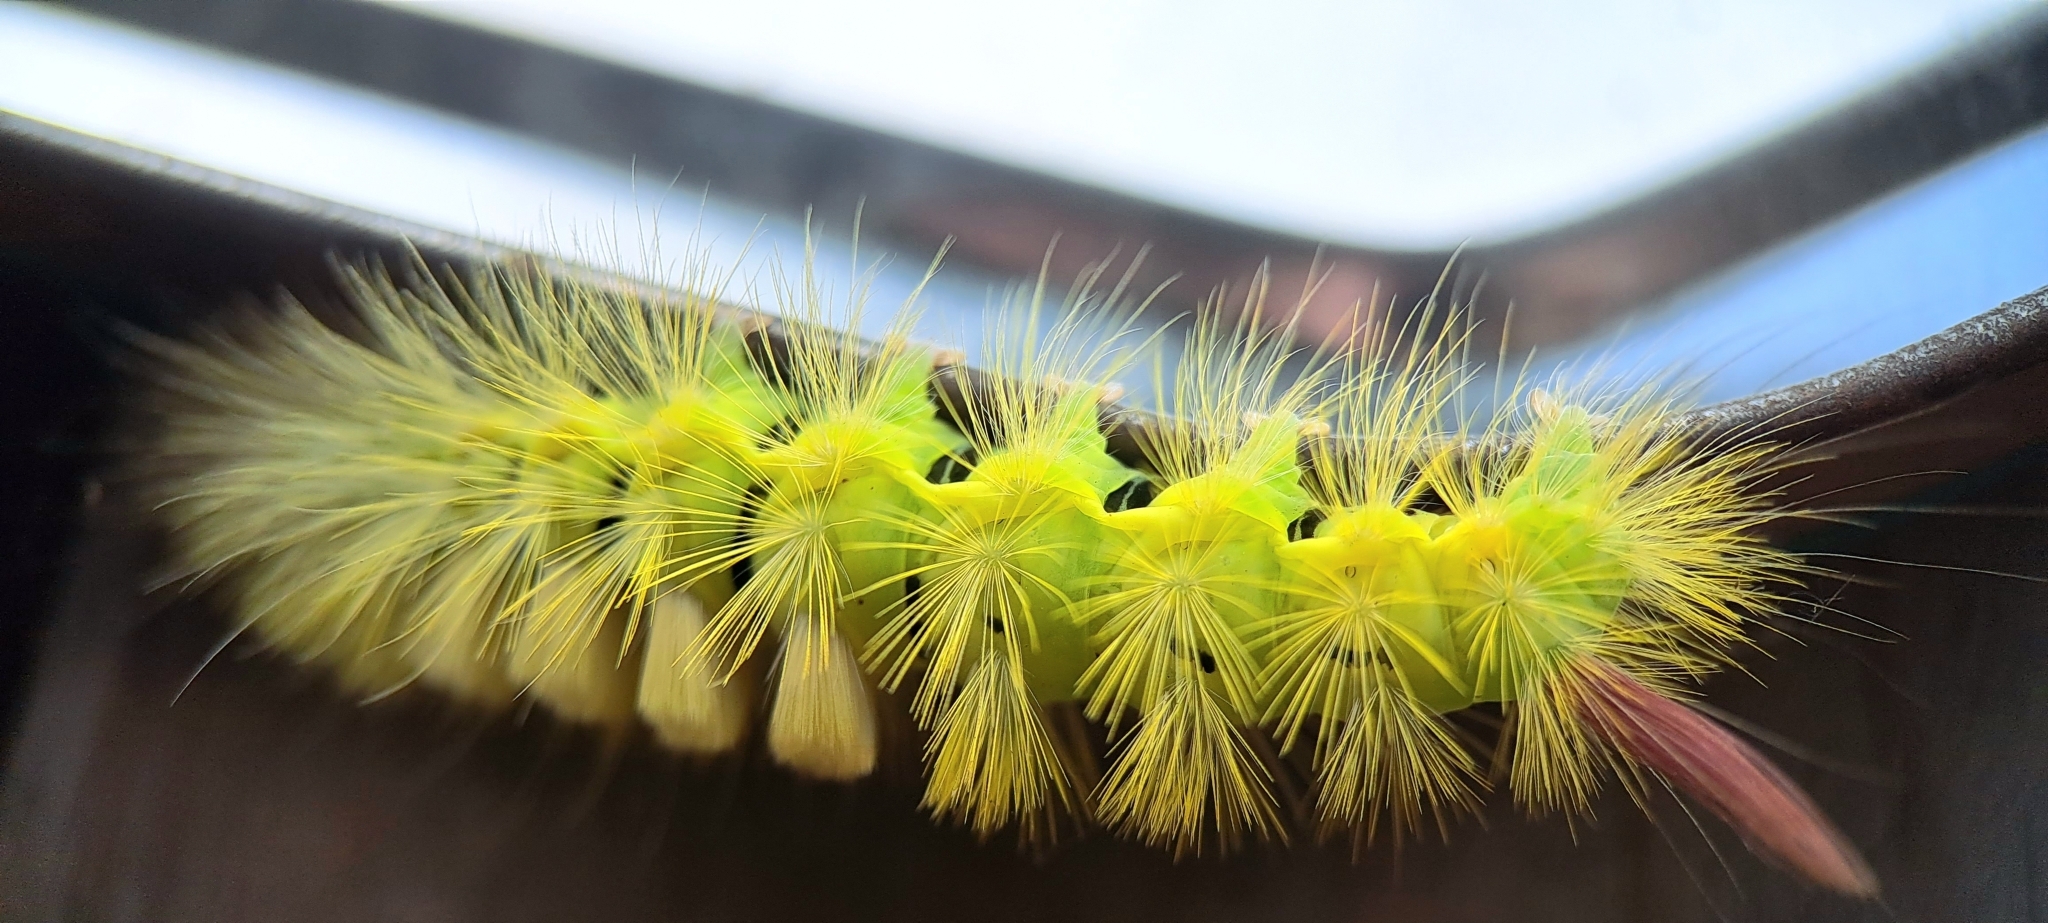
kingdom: Animalia
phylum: Arthropoda
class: Insecta
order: Lepidoptera
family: Erebidae
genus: Calliteara
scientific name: Calliteara pudibunda
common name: Pale tussock
